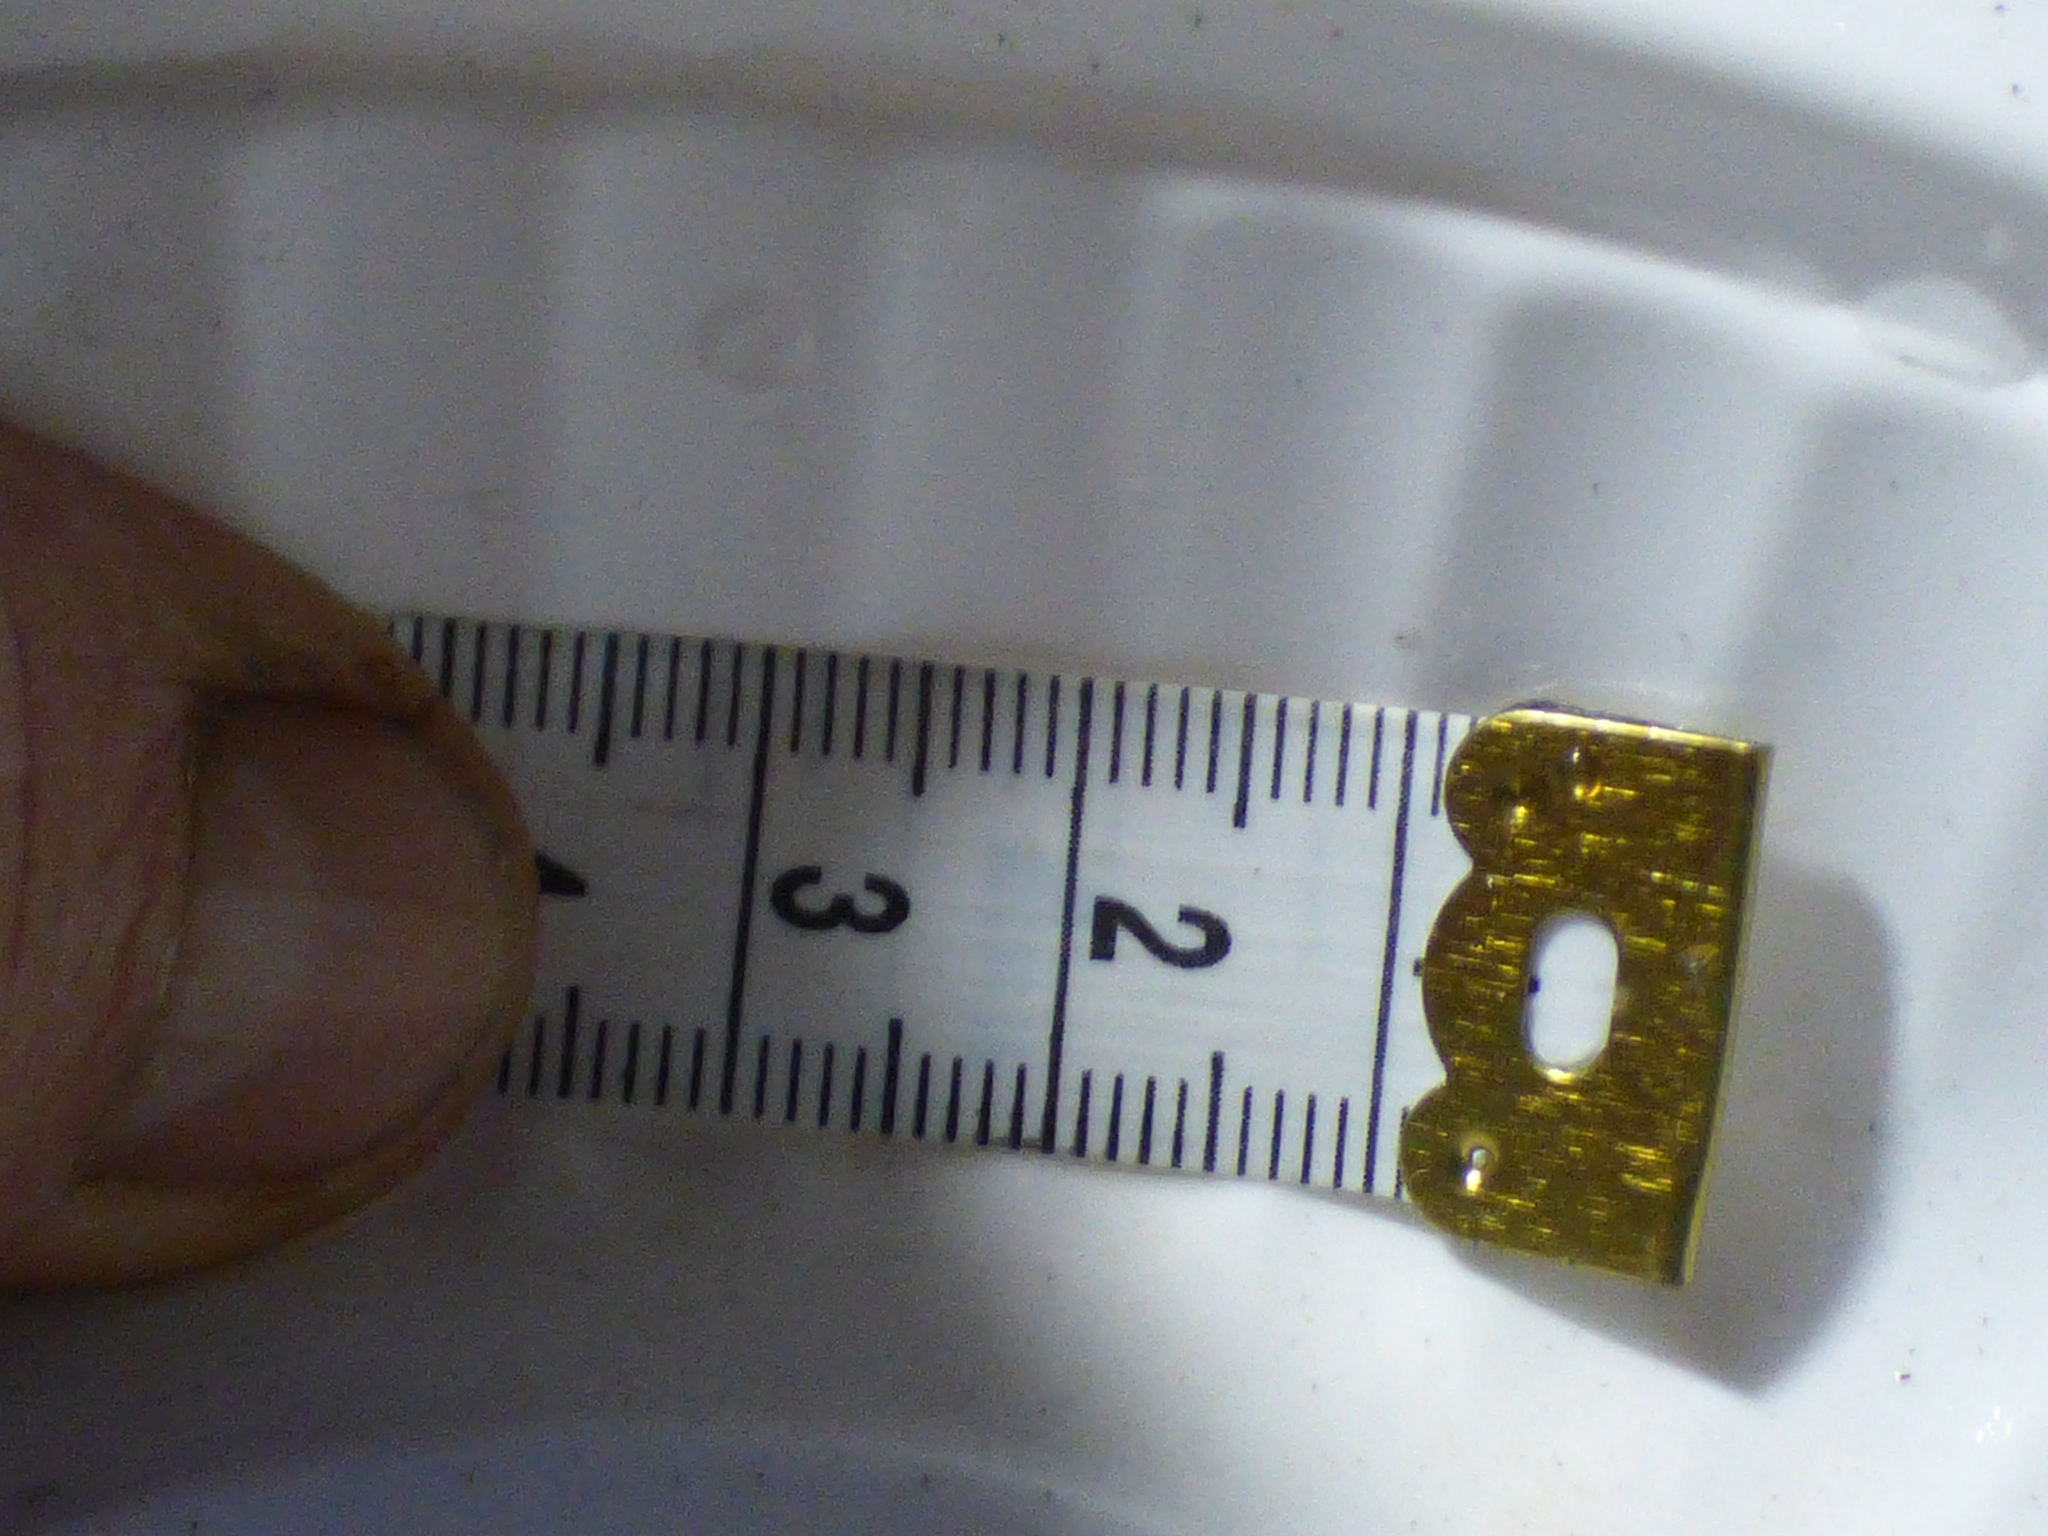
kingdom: Animalia
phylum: Arthropoda
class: Insecta
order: Coleoptera
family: Carabidae
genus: Scaphinotus
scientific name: Scaphinotus unicolor
